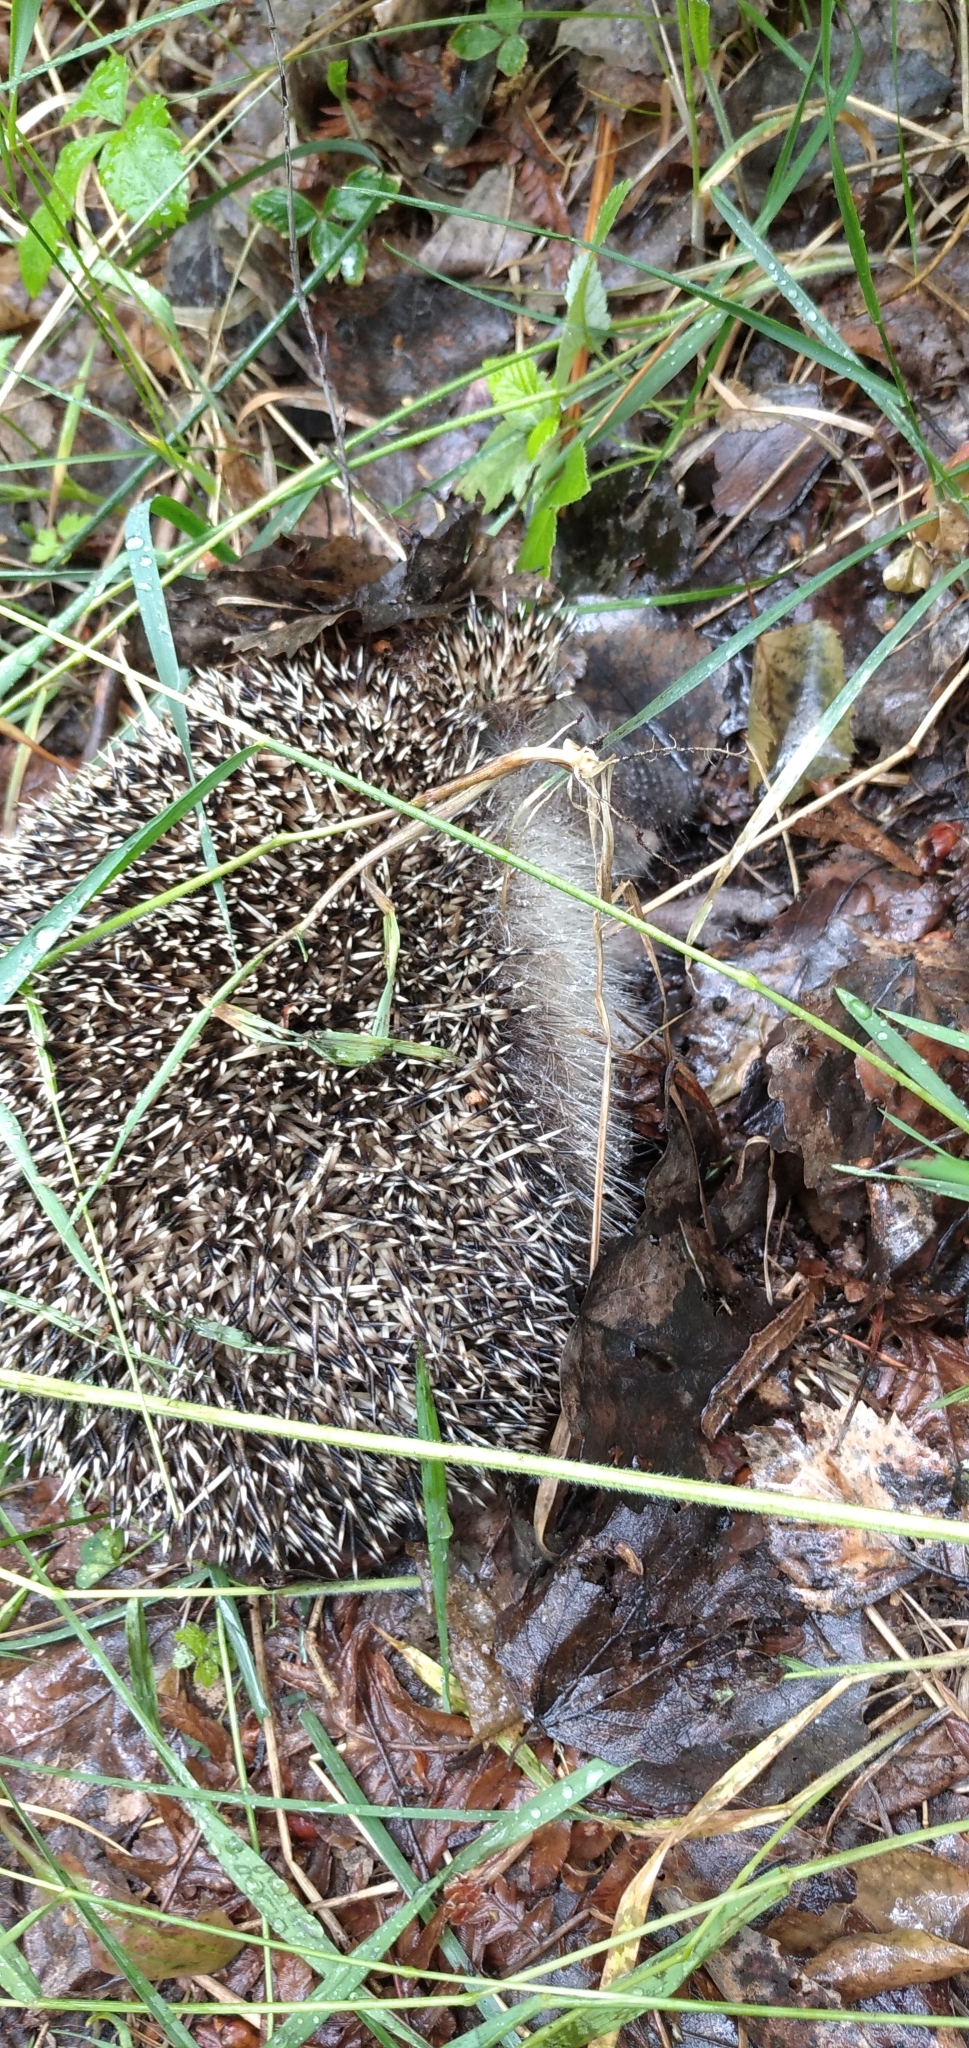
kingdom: Animalia
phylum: Chordata
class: Mammalia
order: Erinaceomorpha
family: Erinaceidae
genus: Erinaceus
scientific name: Erinaceus roumanicus
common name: Northern white-breasted hedgehog
